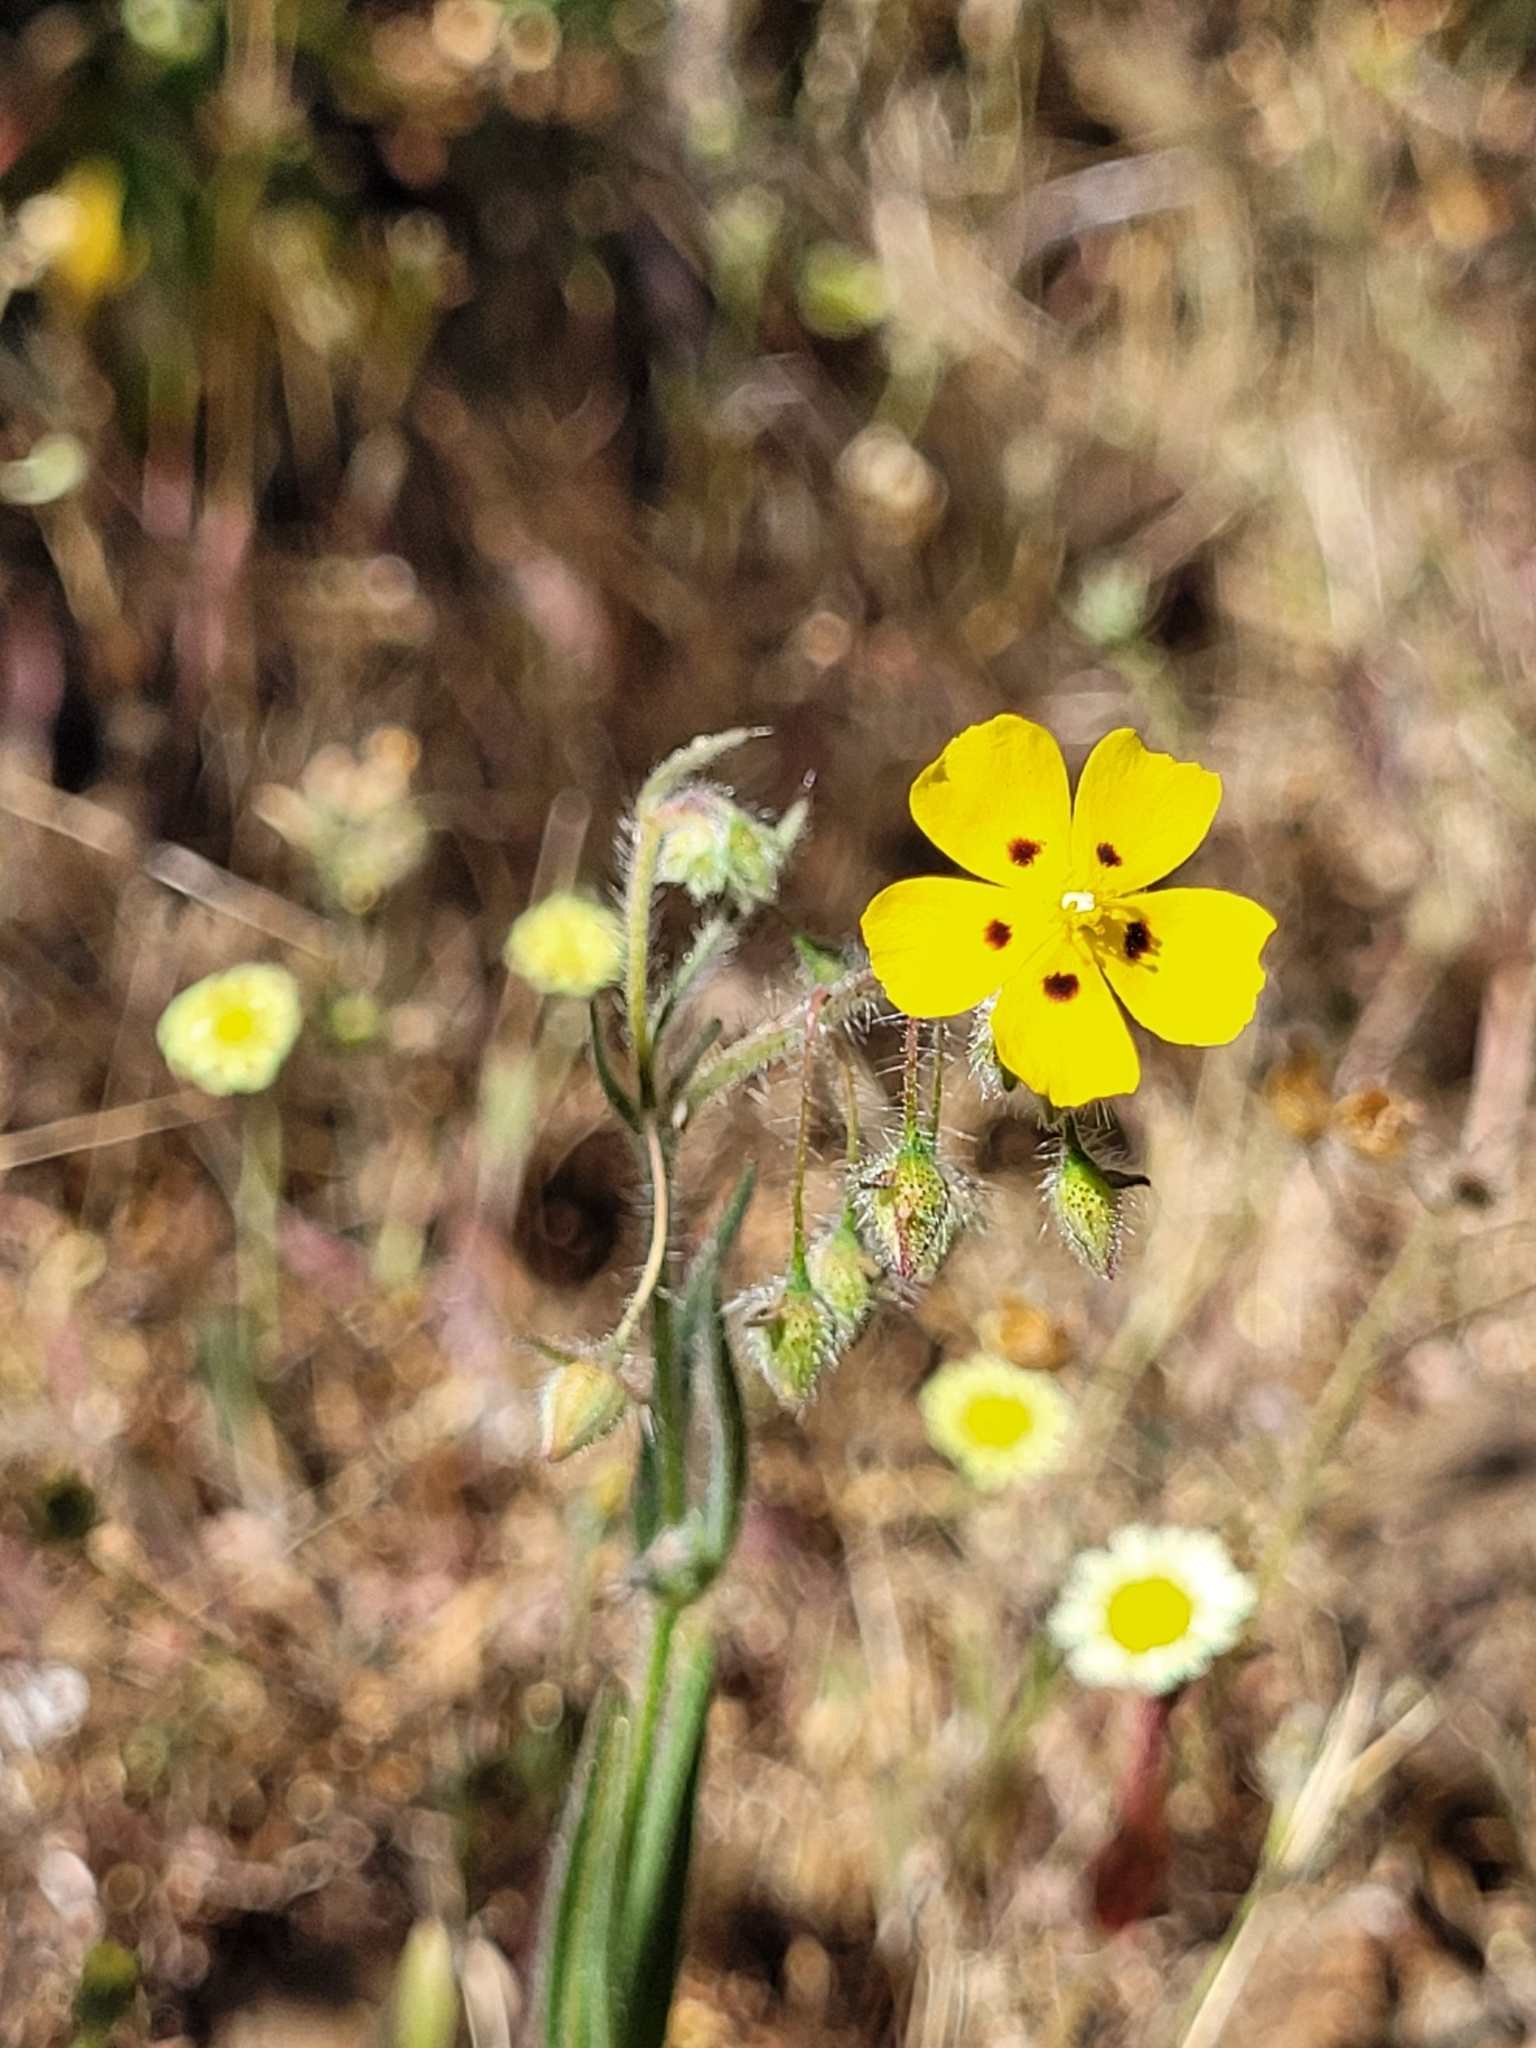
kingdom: Plantae
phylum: Tracheophyta
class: Magnoliopsida
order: Malvales
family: Cistaceae
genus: Tuberaria
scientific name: Tuberaria guttata
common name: Spotted rock-rose
